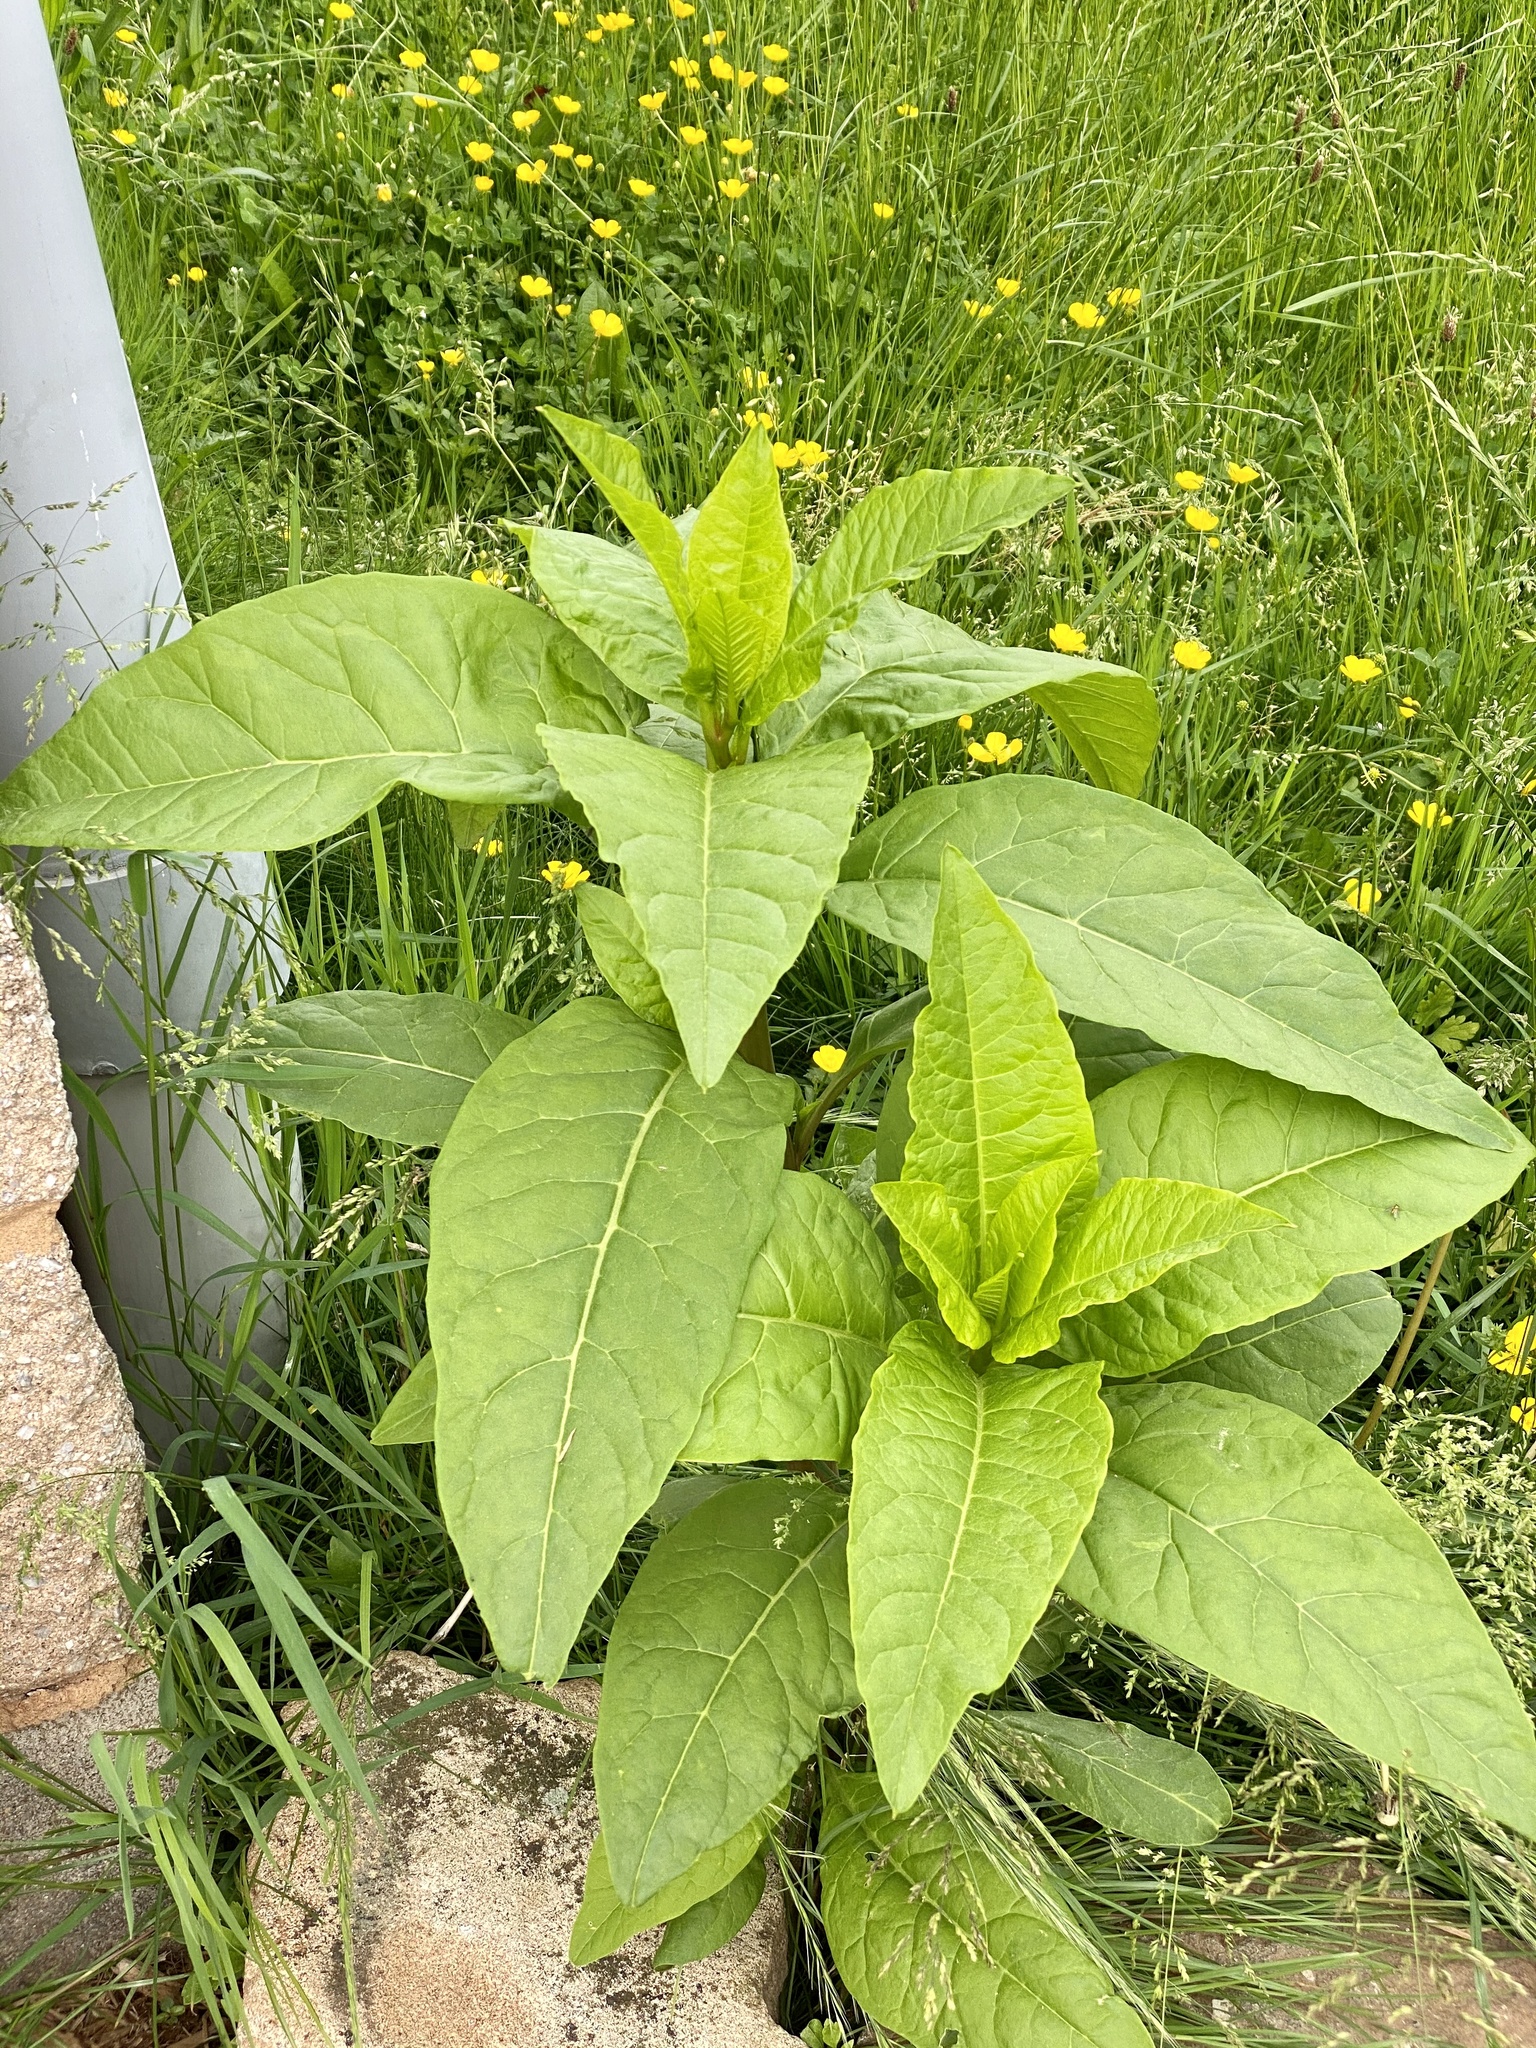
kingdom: Plantae
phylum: Tracheophyta
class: Magnoliopsida
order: Caryophyllales
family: Phytolaccaceae
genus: Phytolacca
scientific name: Phytolacca americana
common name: American pokeweed
